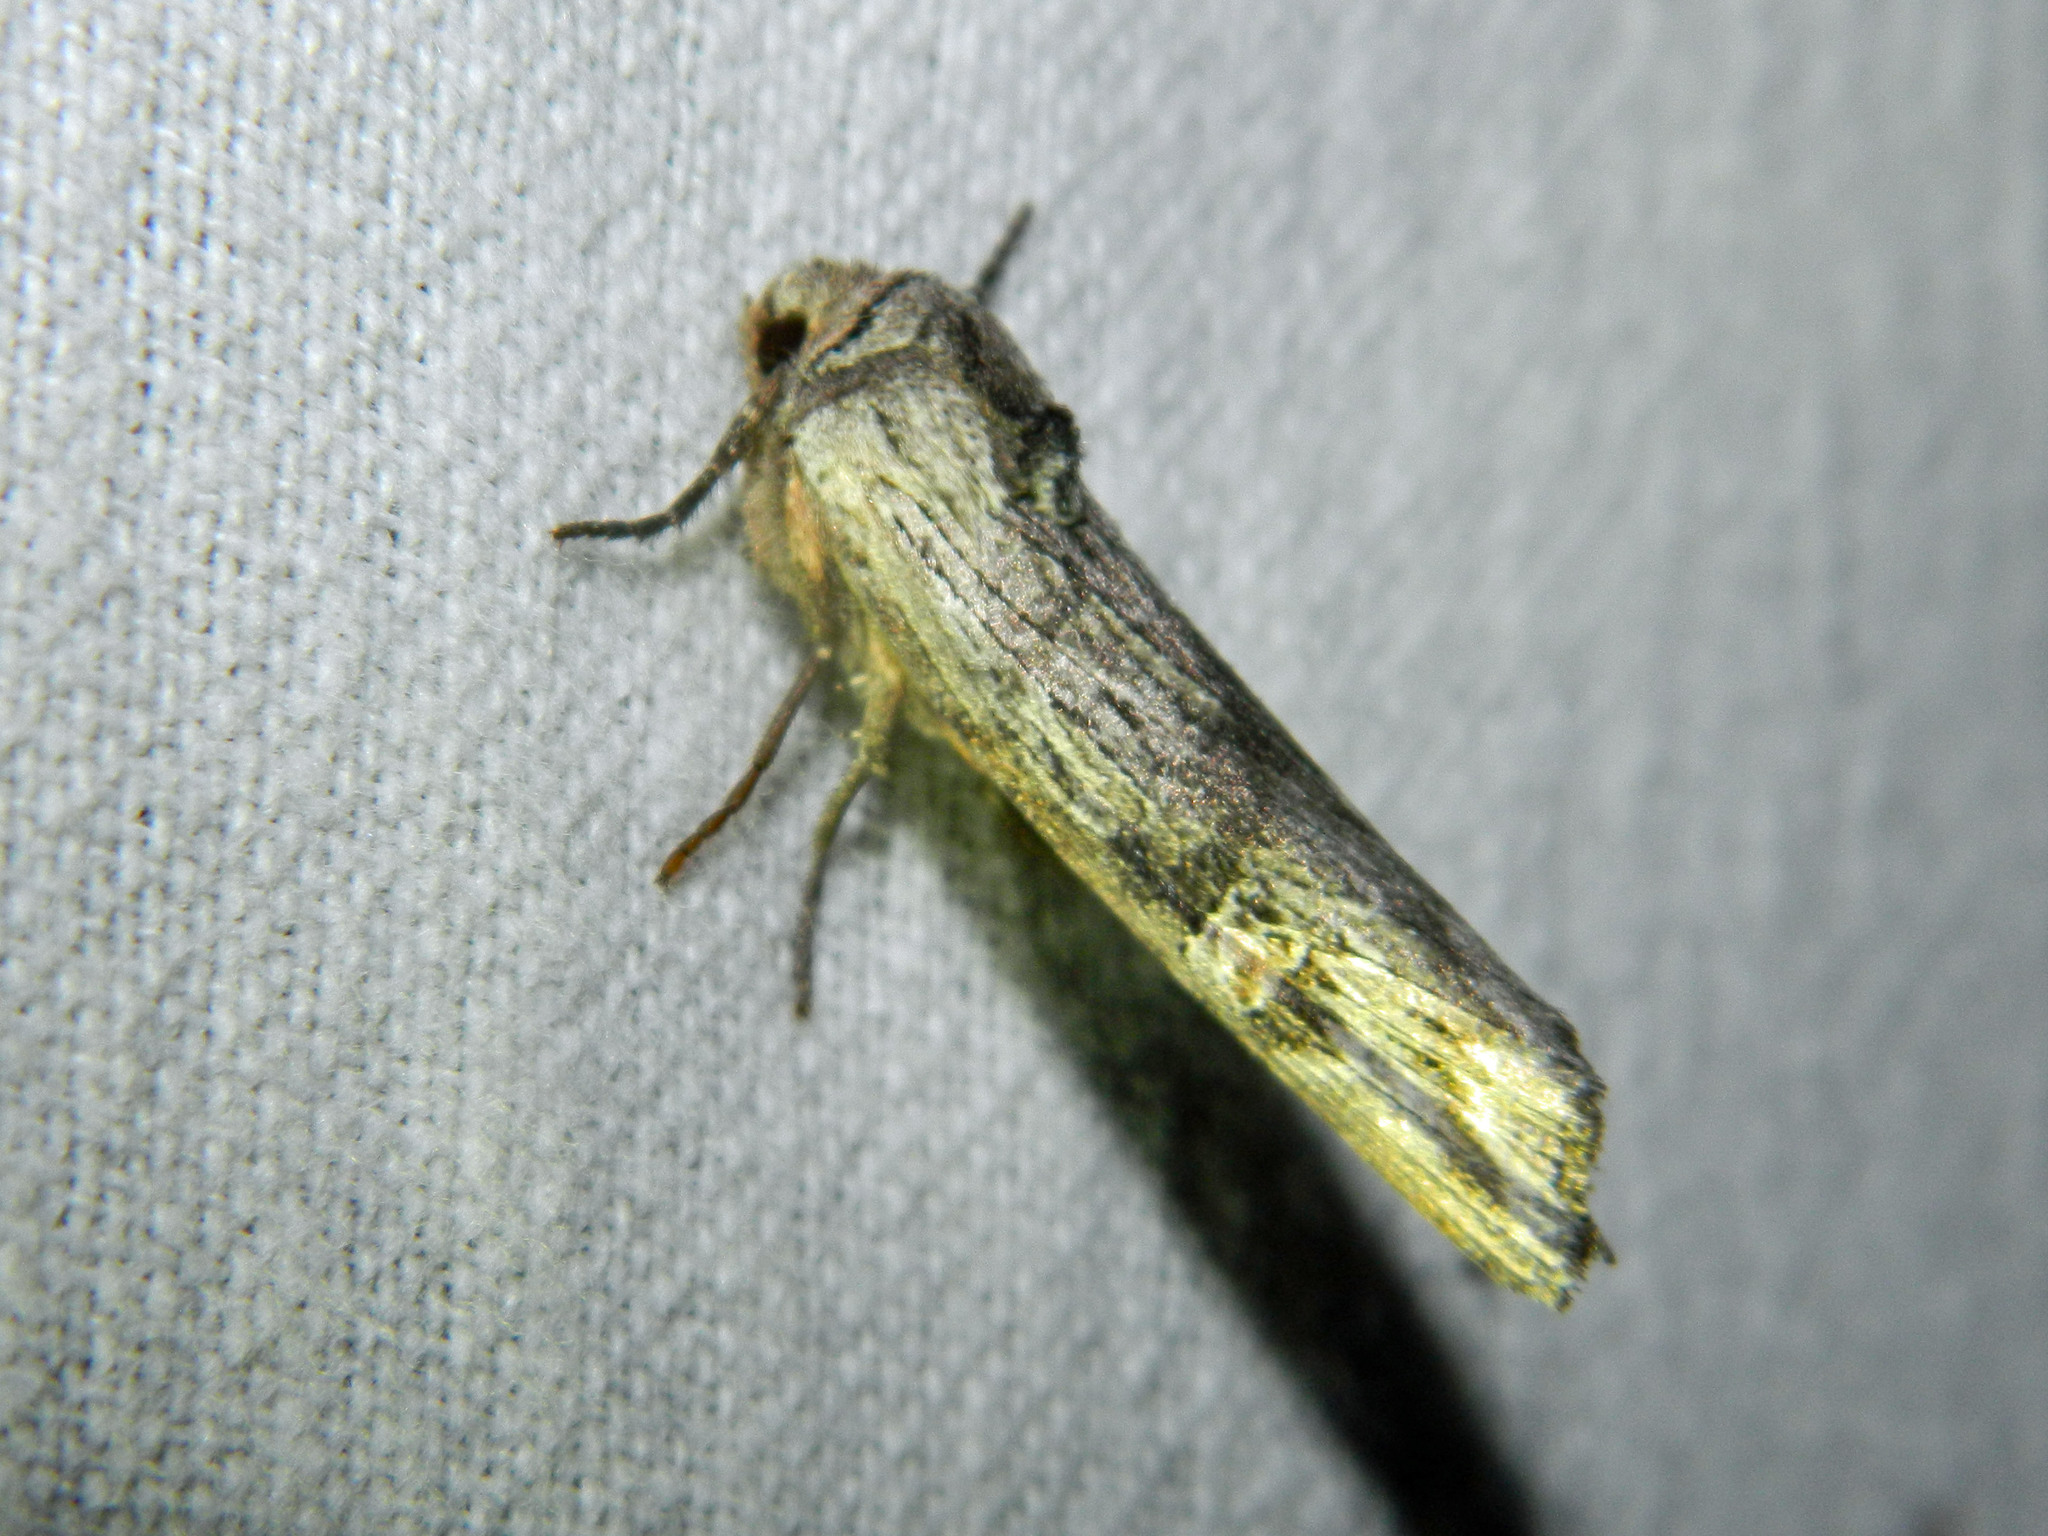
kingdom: Animalia
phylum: Arthropoda
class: Insecta
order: Lepidoptera
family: Noctuidae
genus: Xylena
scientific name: Xylena germana
